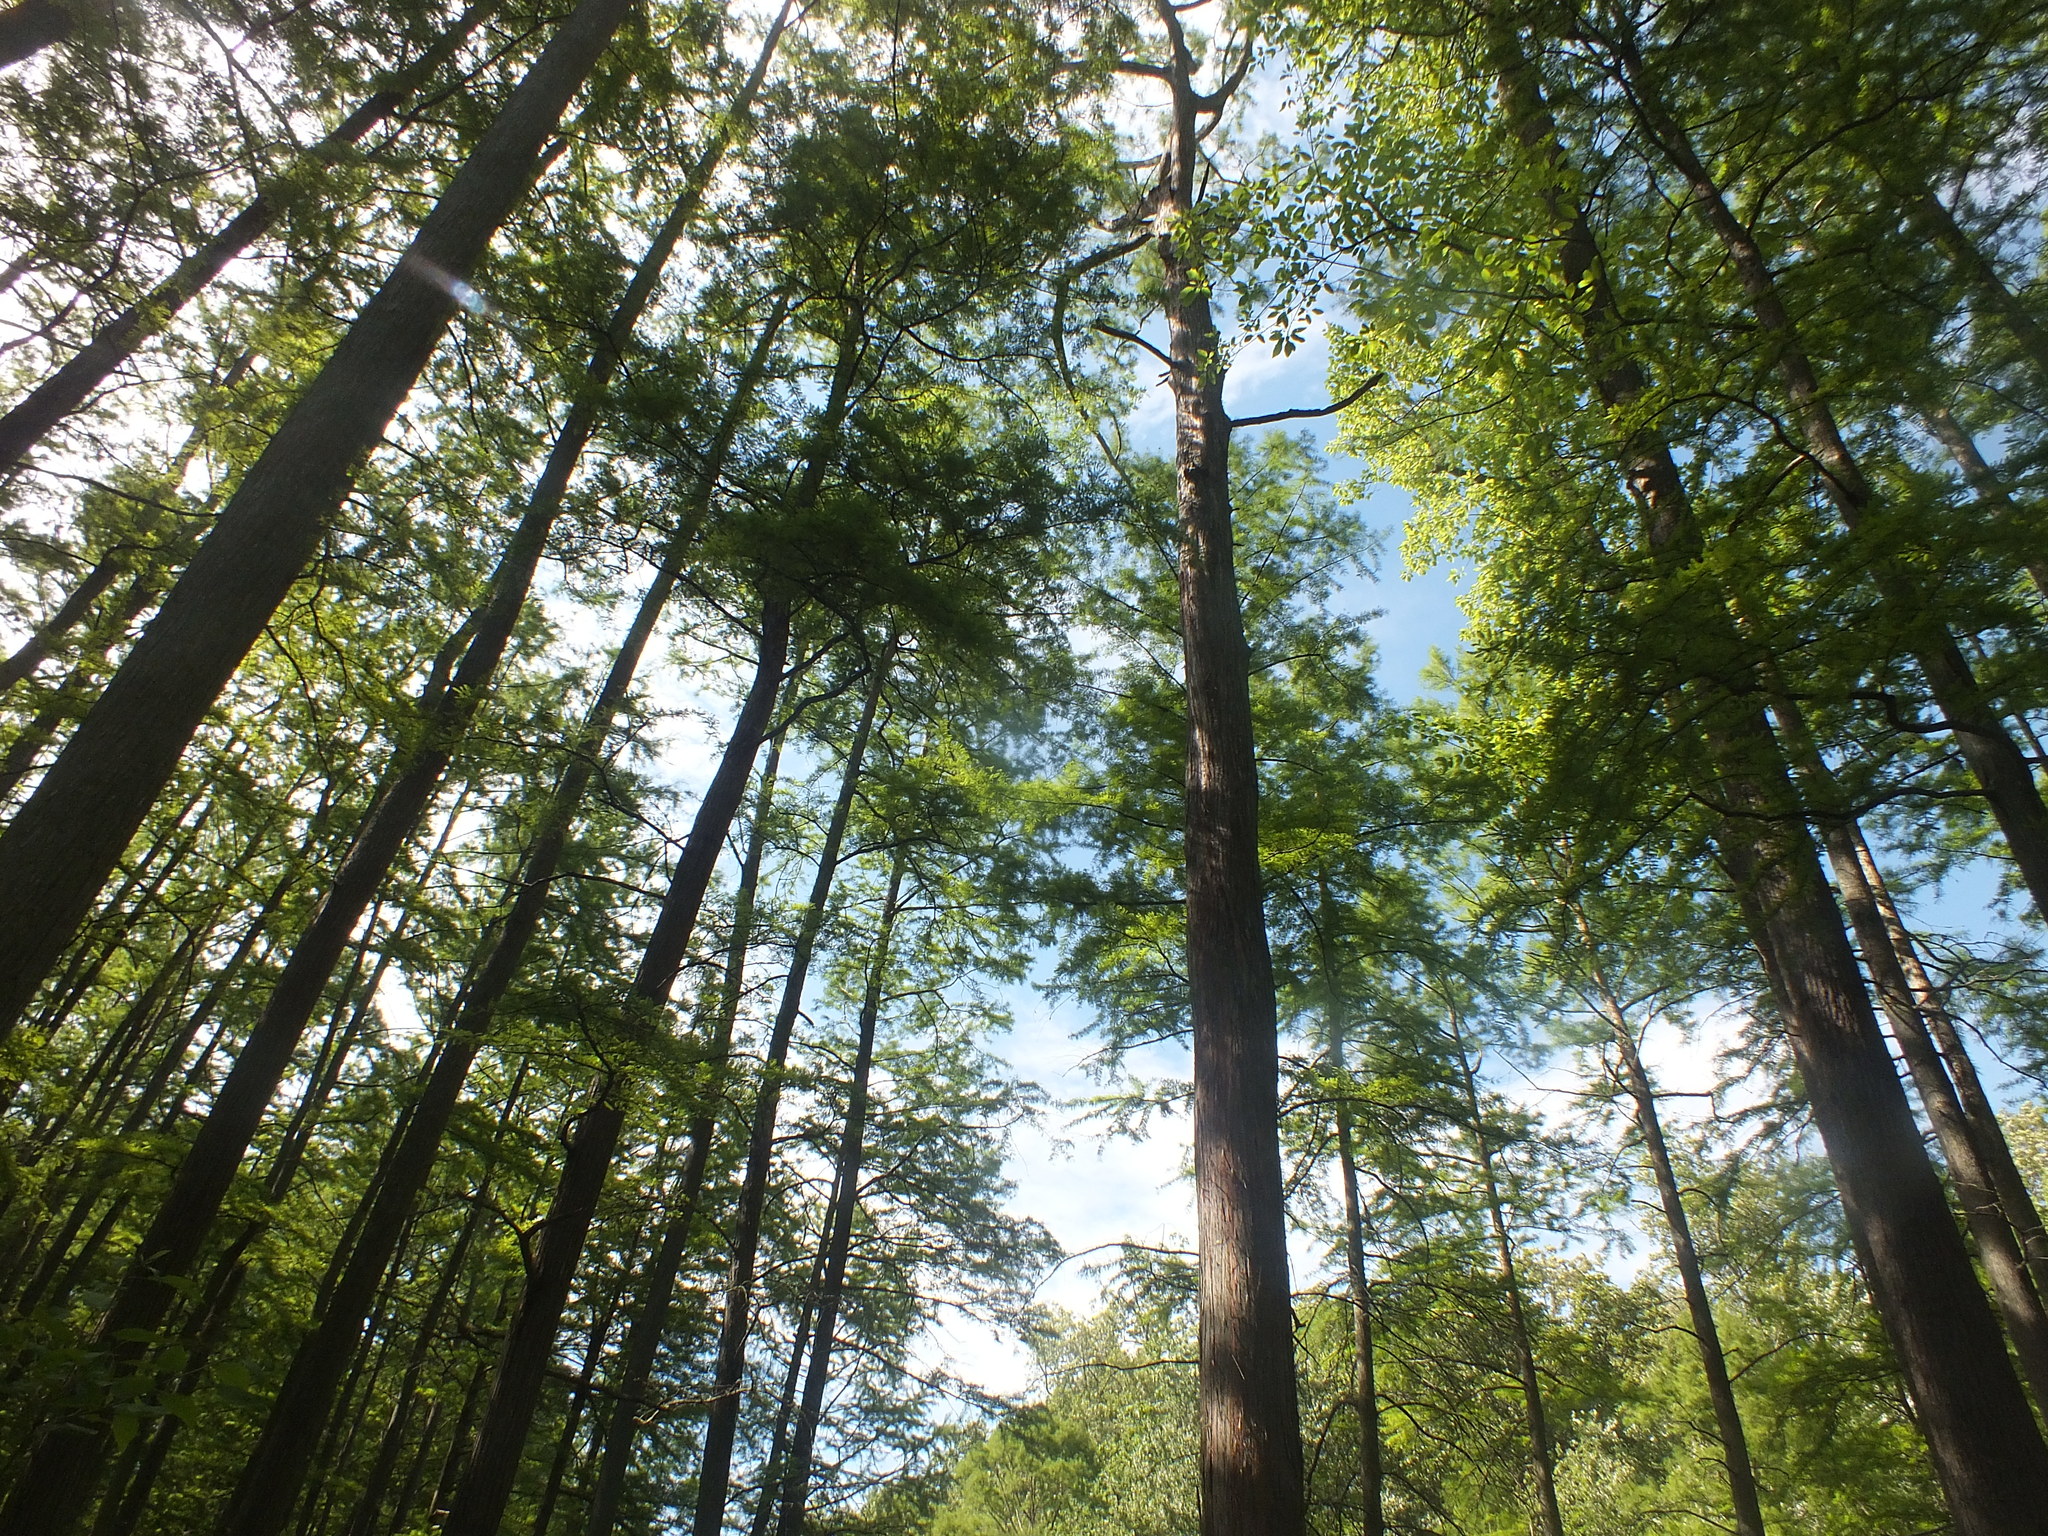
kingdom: Plantae
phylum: Tracheophyta
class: Pinopsida
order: Pinales
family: Cupressaceae
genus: Taxodium
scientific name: Taxodium distichum
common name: Bald cypress
